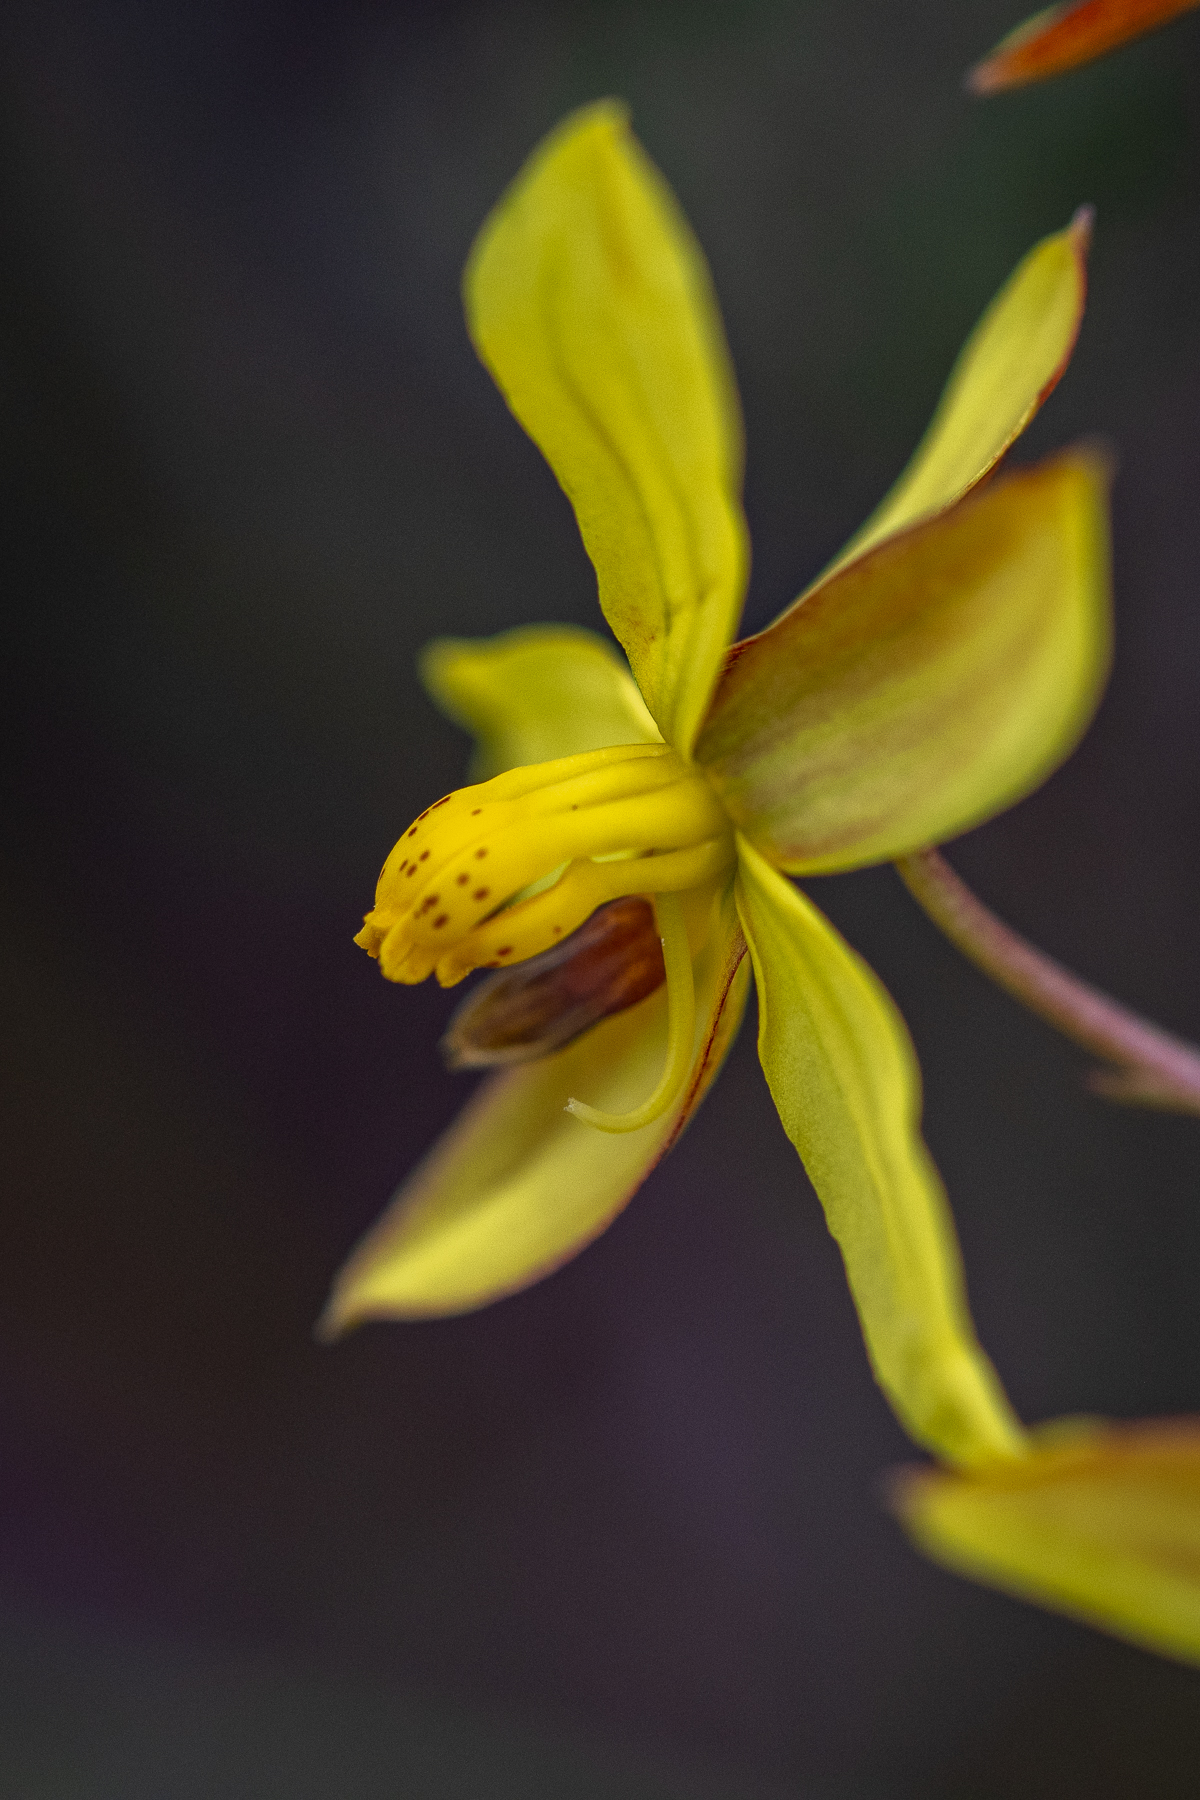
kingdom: Plantae
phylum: Tracheophyta
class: Liliopsida
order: Asparagales
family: Tecophilaeaceae
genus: Cyanella
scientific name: Cyanella lutea
